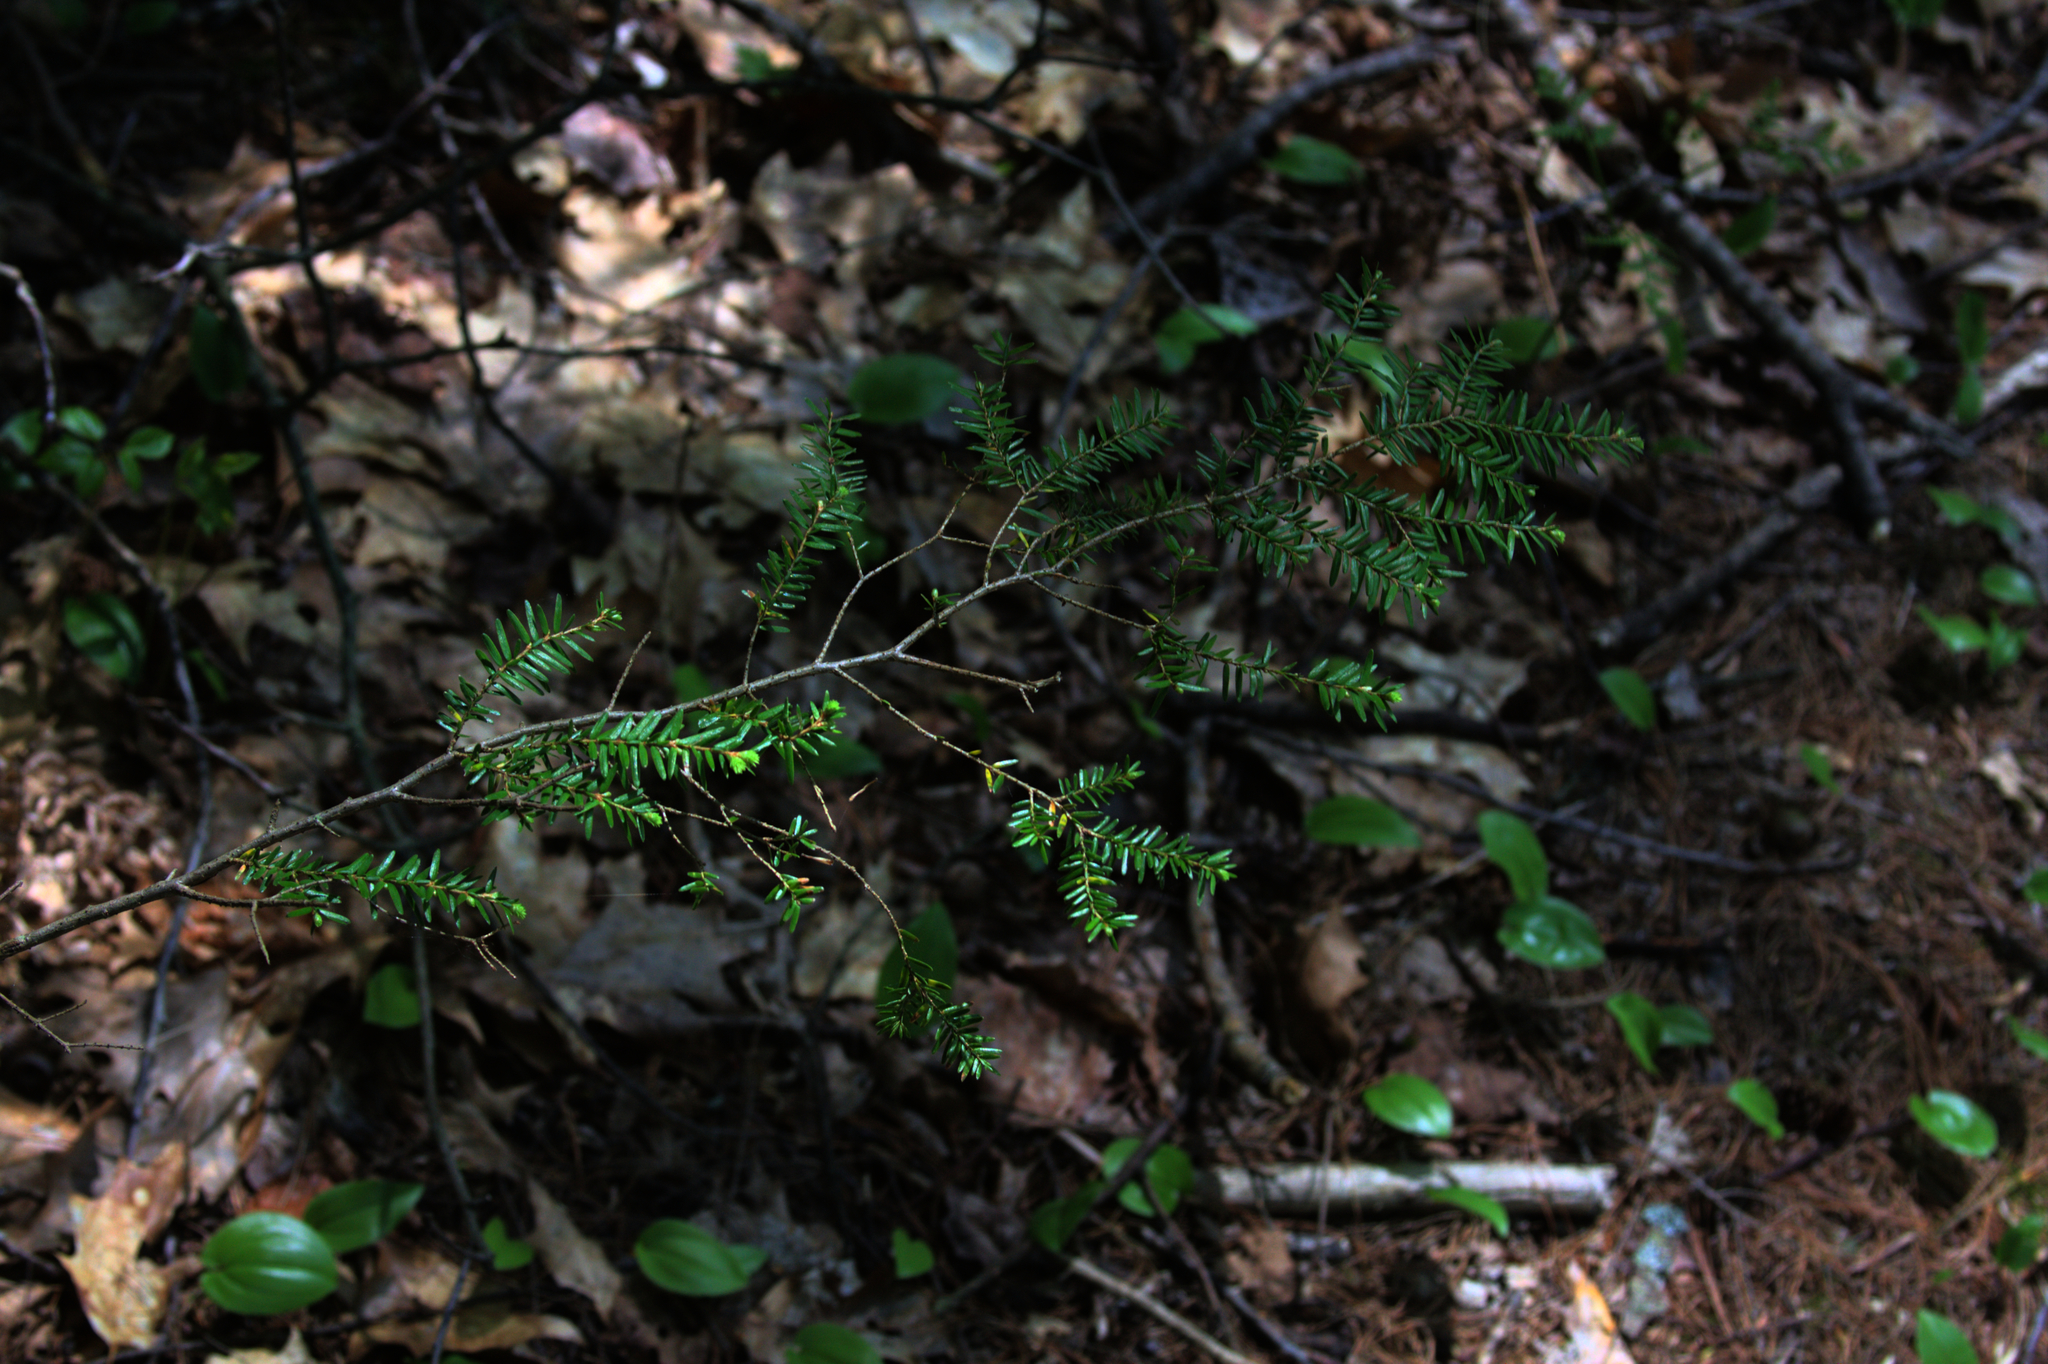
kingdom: Plantae
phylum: Tracheophyta
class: Liliopsida
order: Asparagales
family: Asparagaceae
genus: Maianthemum
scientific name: Maianthemum canadense
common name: False lily-of-the-valley
